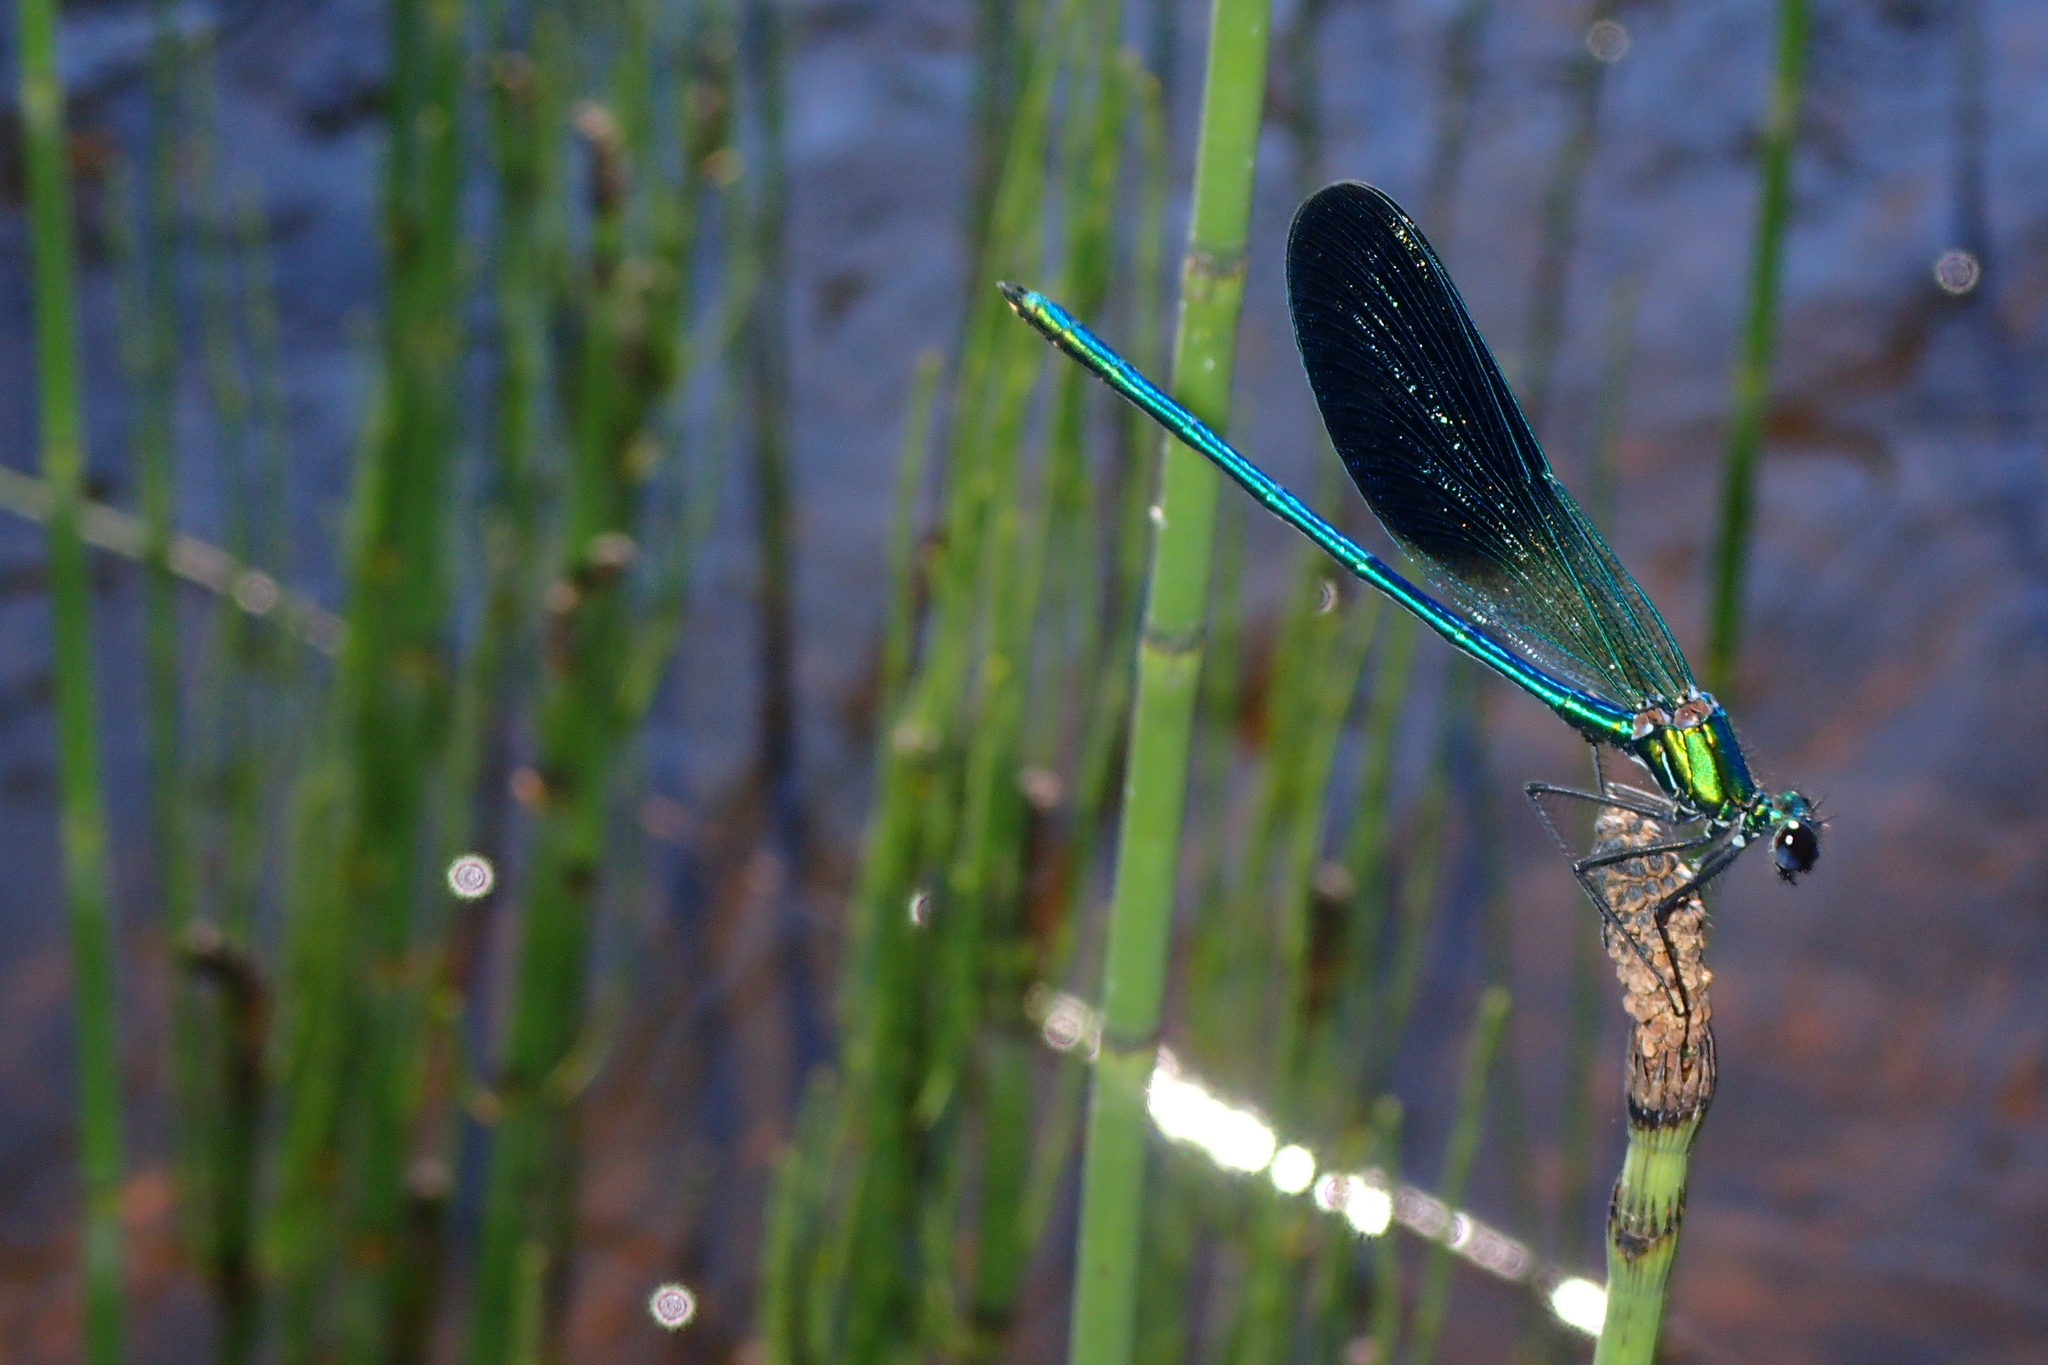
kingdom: Animalia
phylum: Arthropoda
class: Insecta
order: Odonata
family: Calopterygidae
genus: Calopteryx
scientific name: Calopteryx xanthostoma
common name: Western demoiselle
